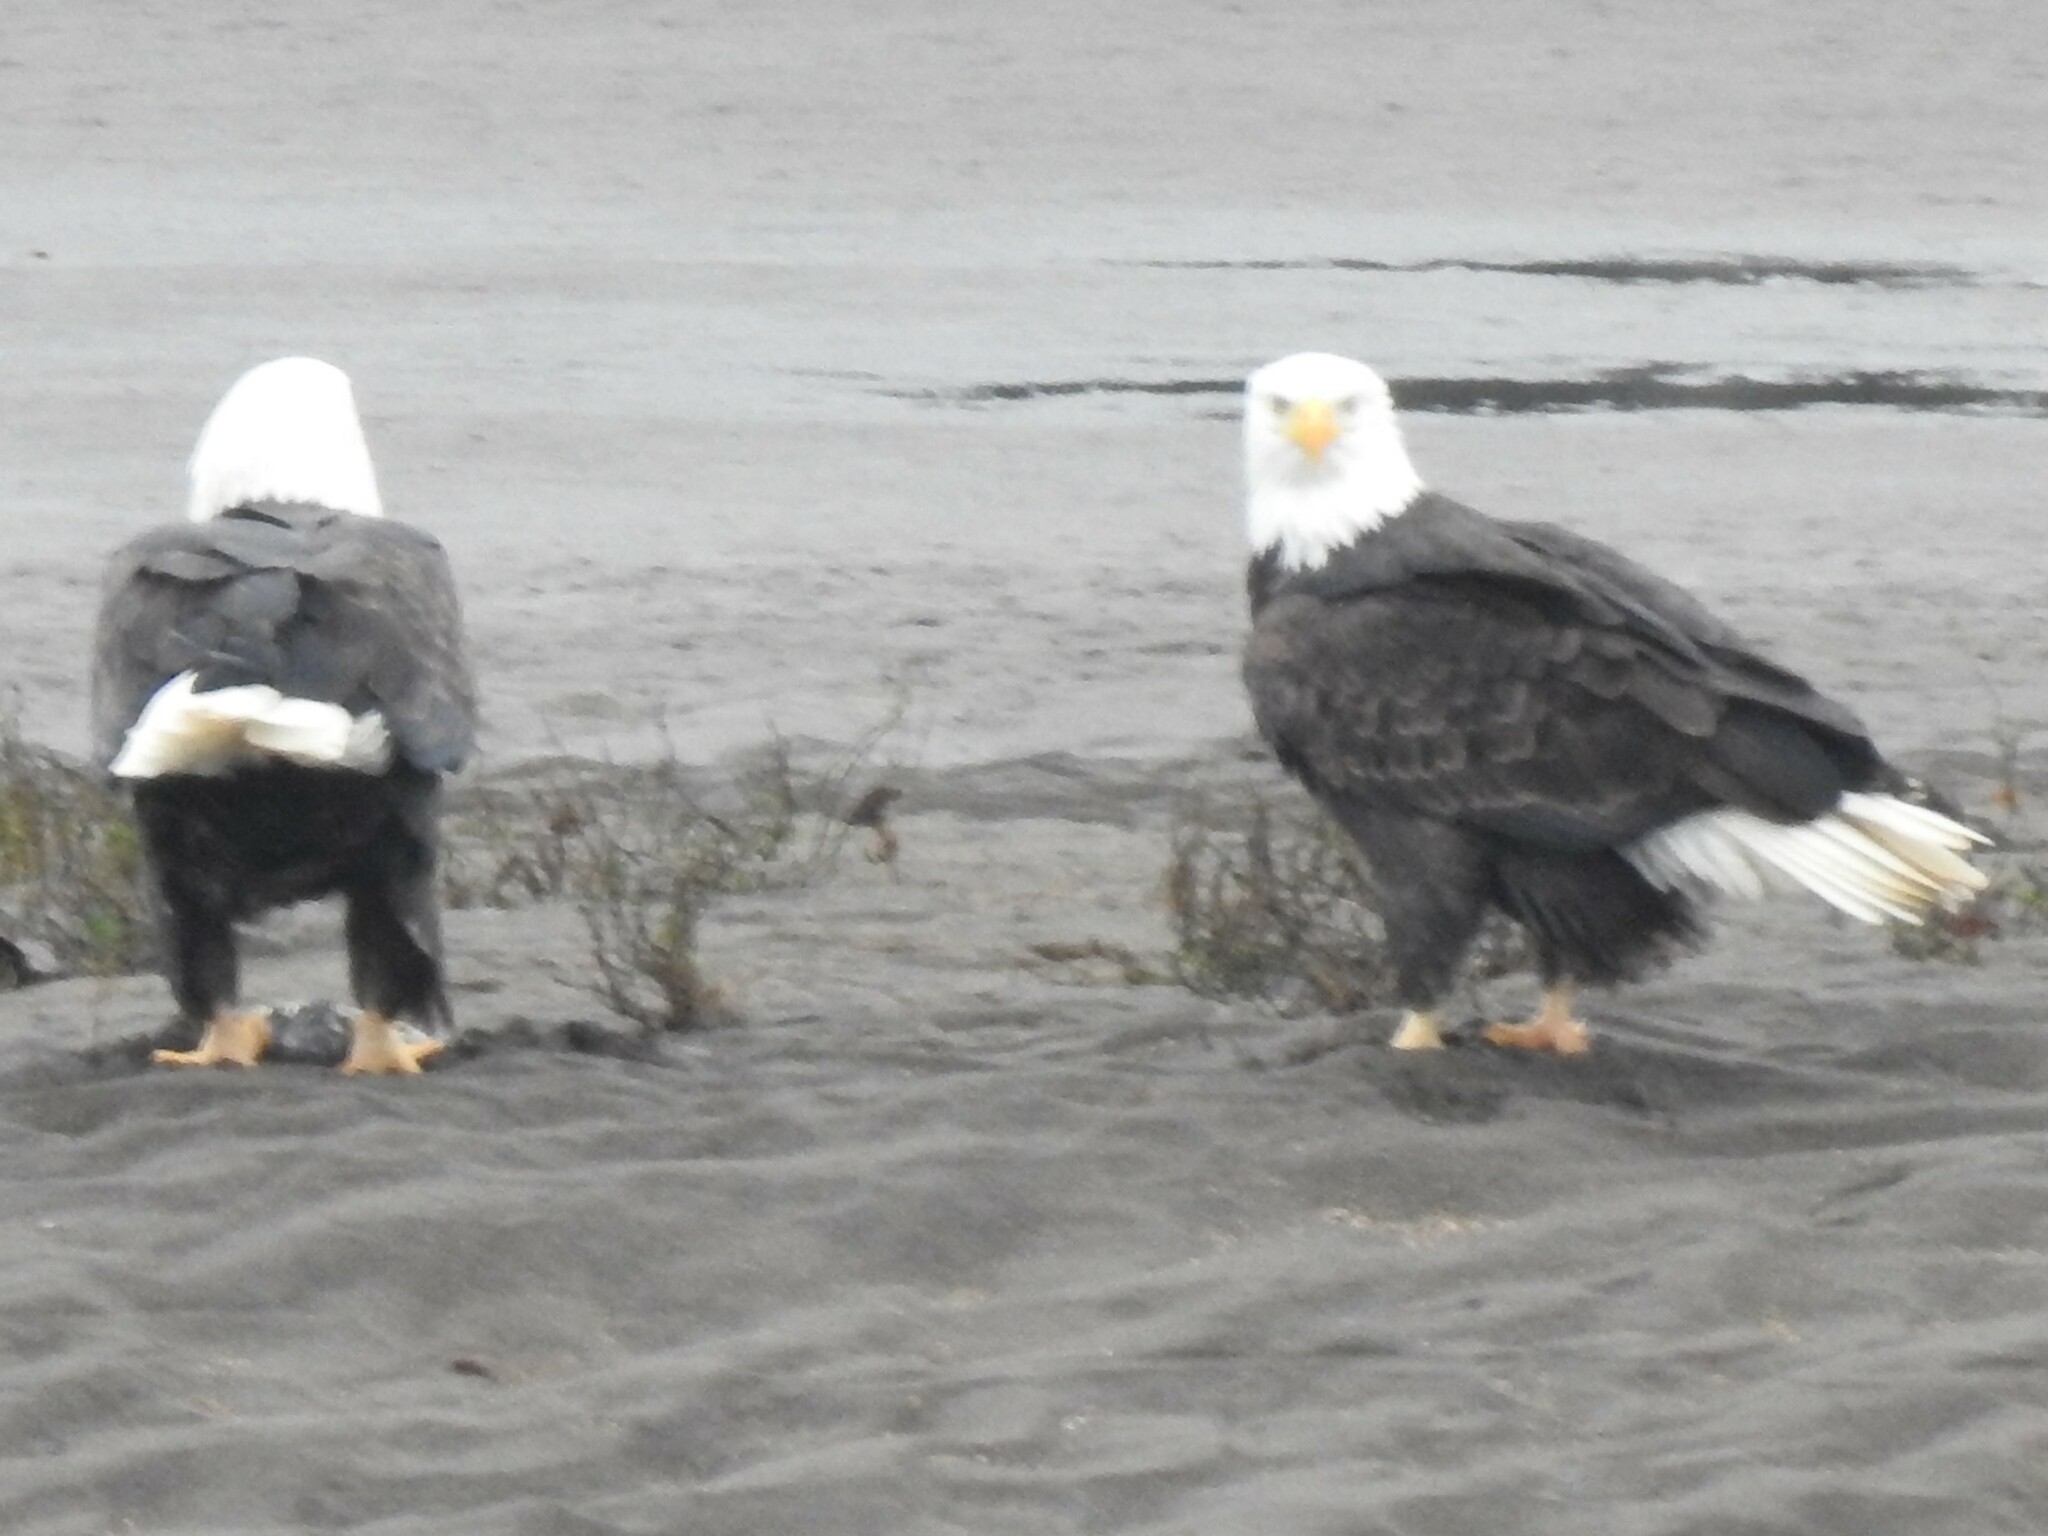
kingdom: Animalia
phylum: Chordata
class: Aves
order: Accipitriformes
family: Accipitridae
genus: Haliaeetus
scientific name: Haliaeetus leucocephalus
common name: Bald eagle
